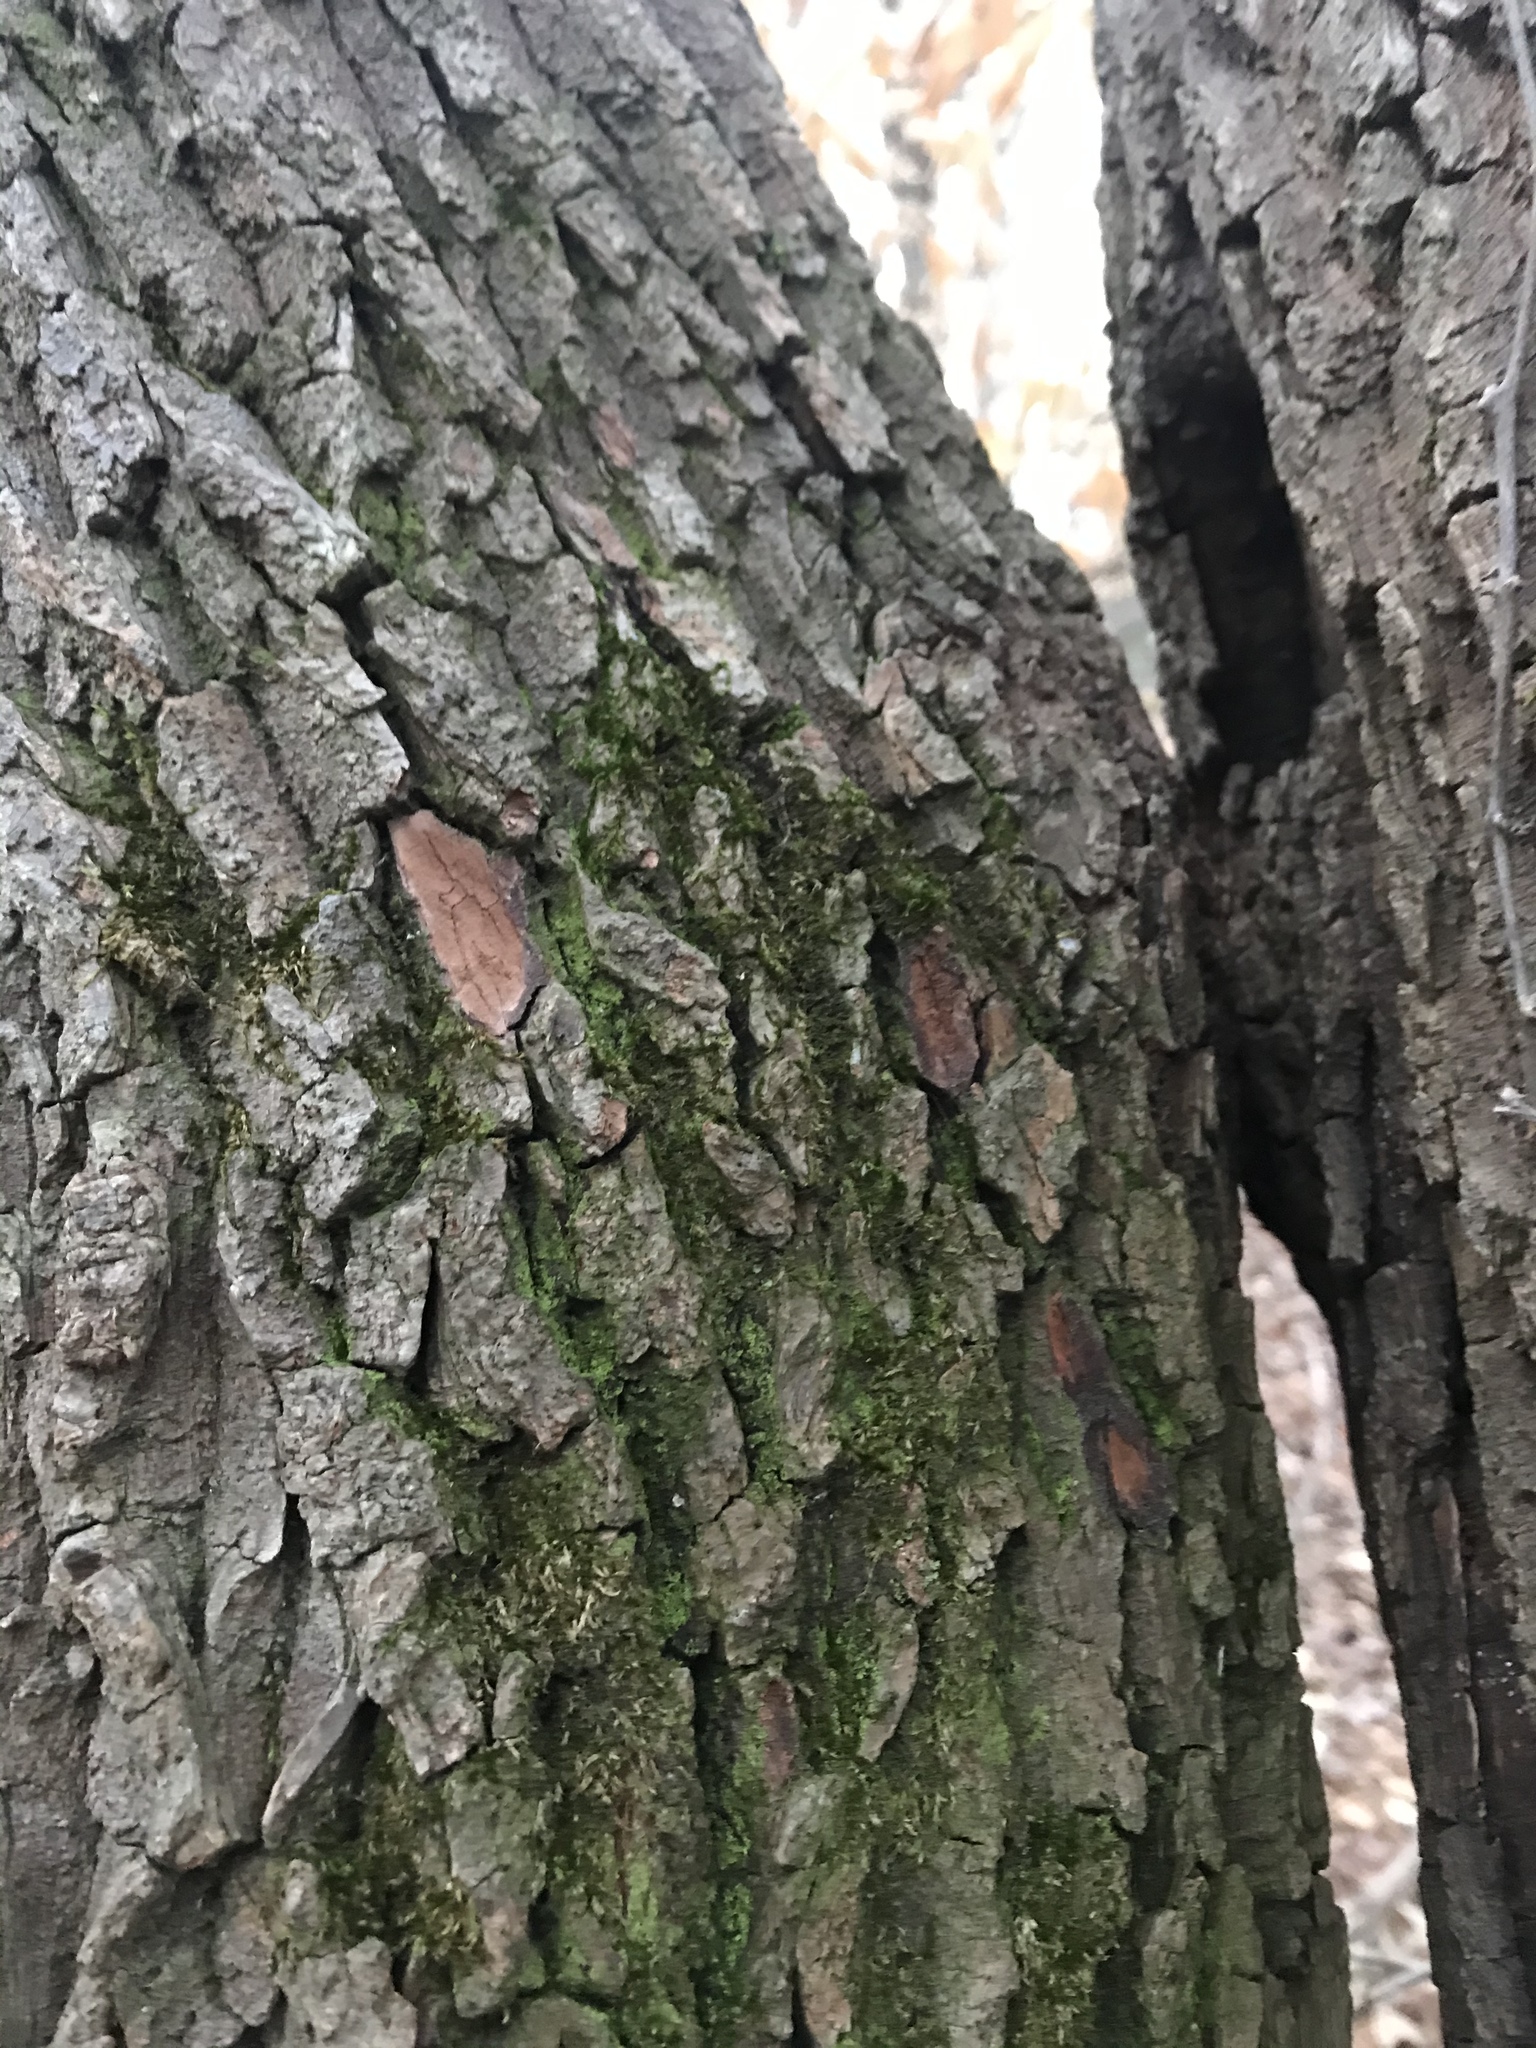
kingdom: Plantae
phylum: Tracheophyta
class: Magnoliopsida
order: Ericales
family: Ericaceae
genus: Oxydendrum
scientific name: Oxydendrum arboreum
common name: Sourwood
